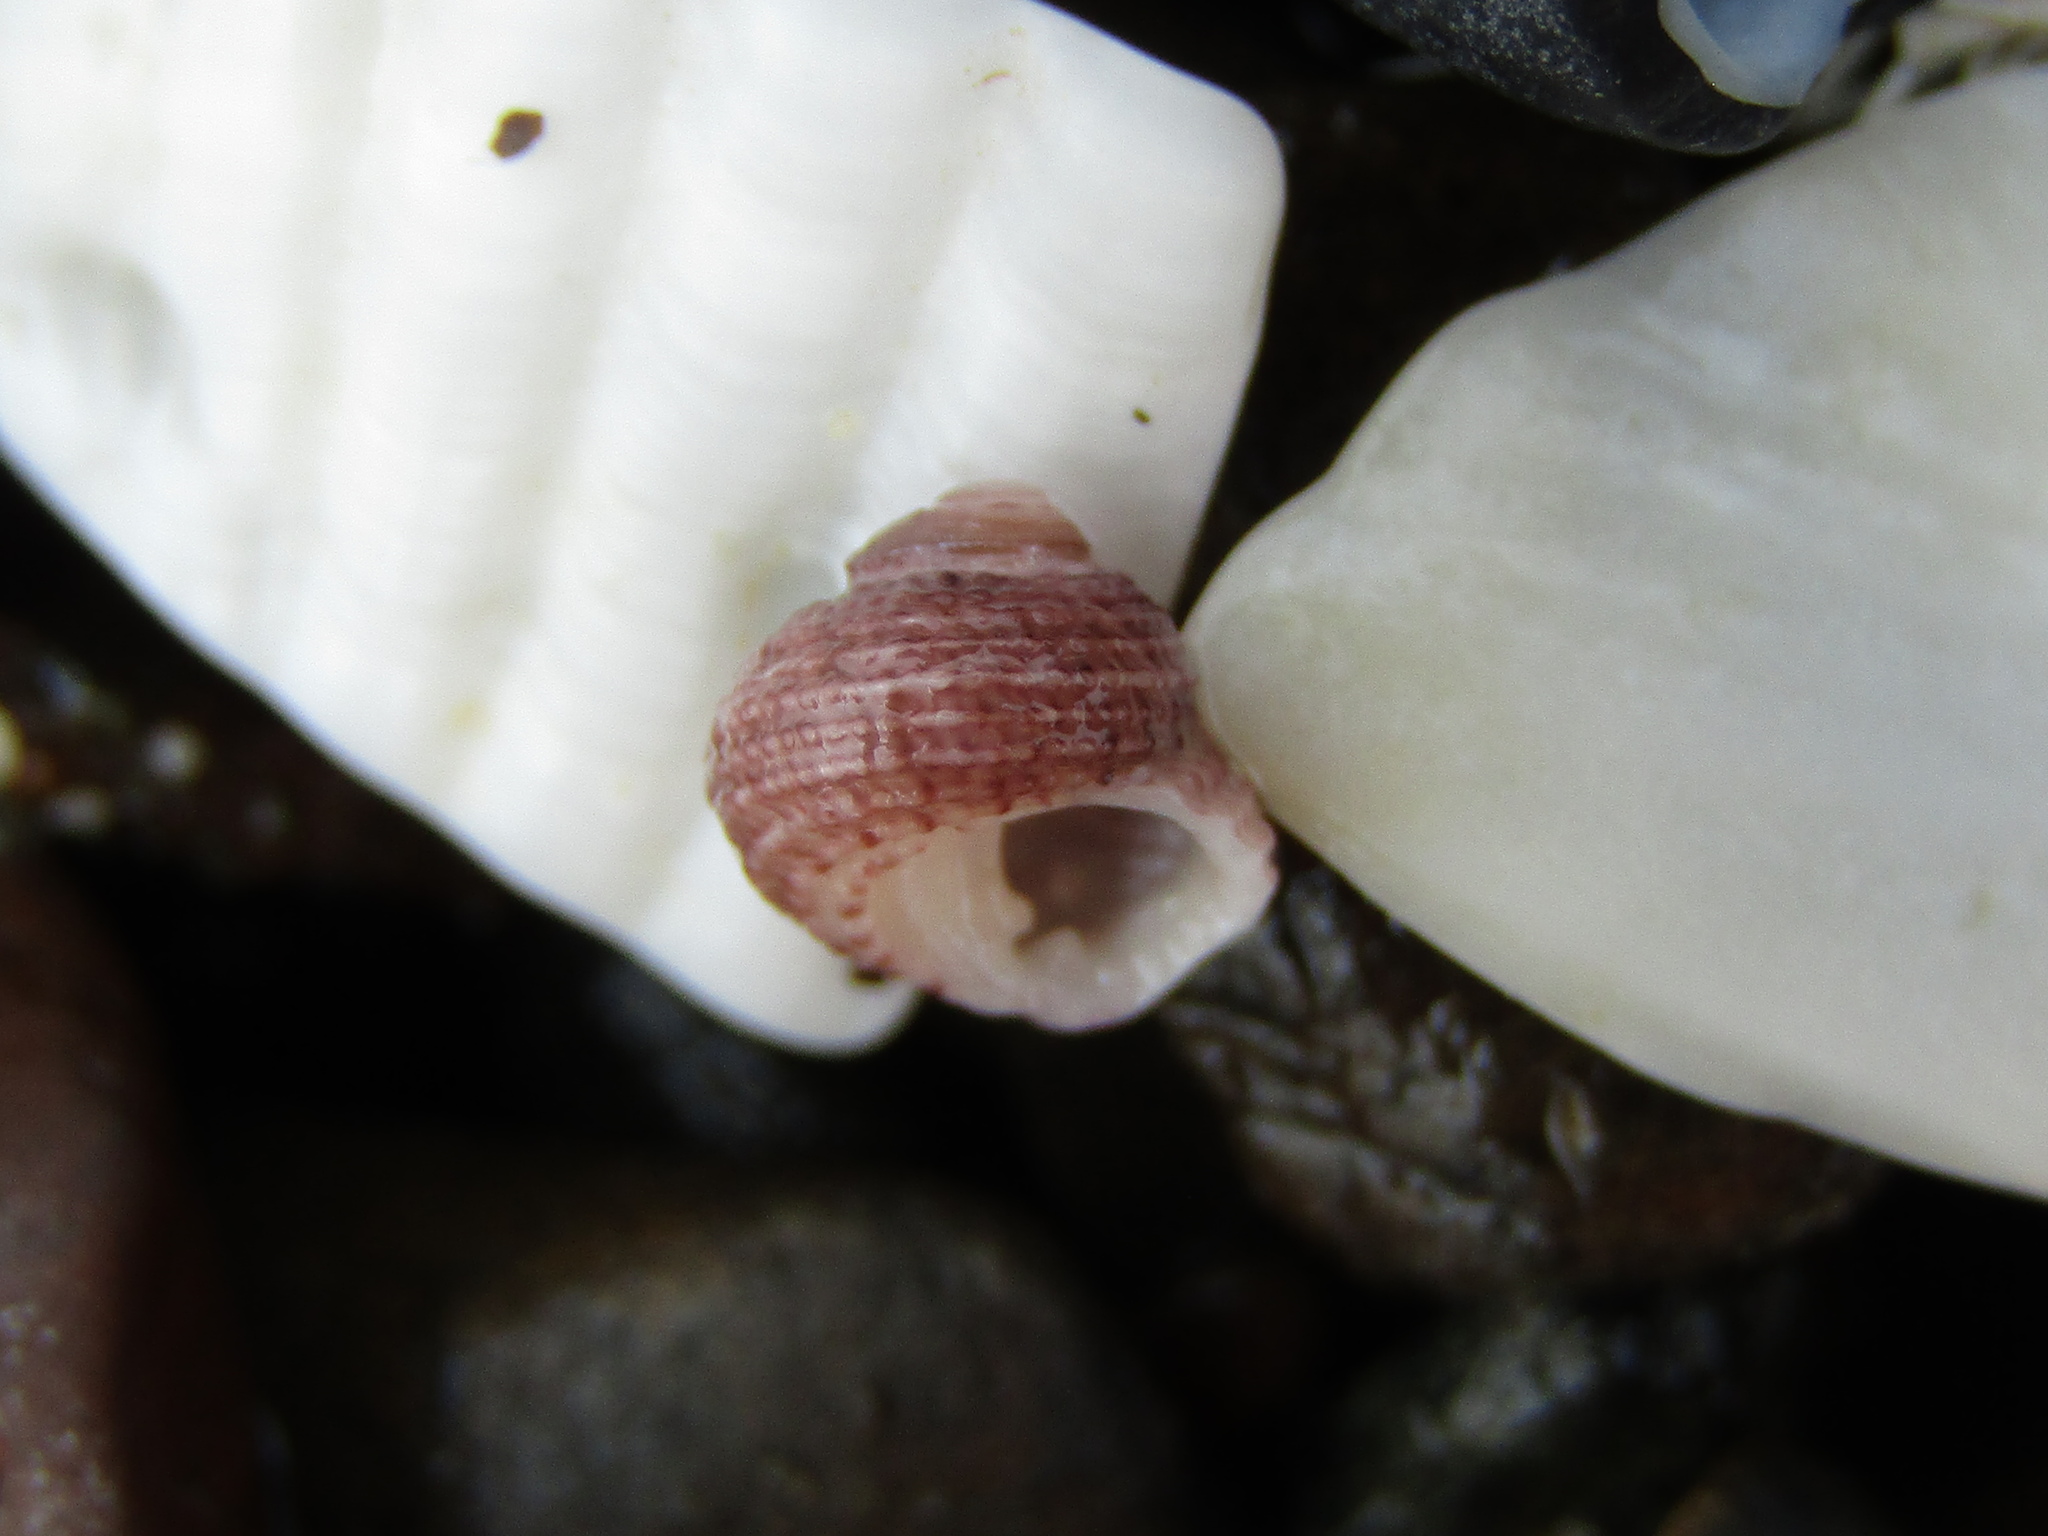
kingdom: Animalia
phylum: Mollusca
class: Gastropoda
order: Seguenziida
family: Chilodontaidae
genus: Herpetopoma
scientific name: Herpetopoma bellum
